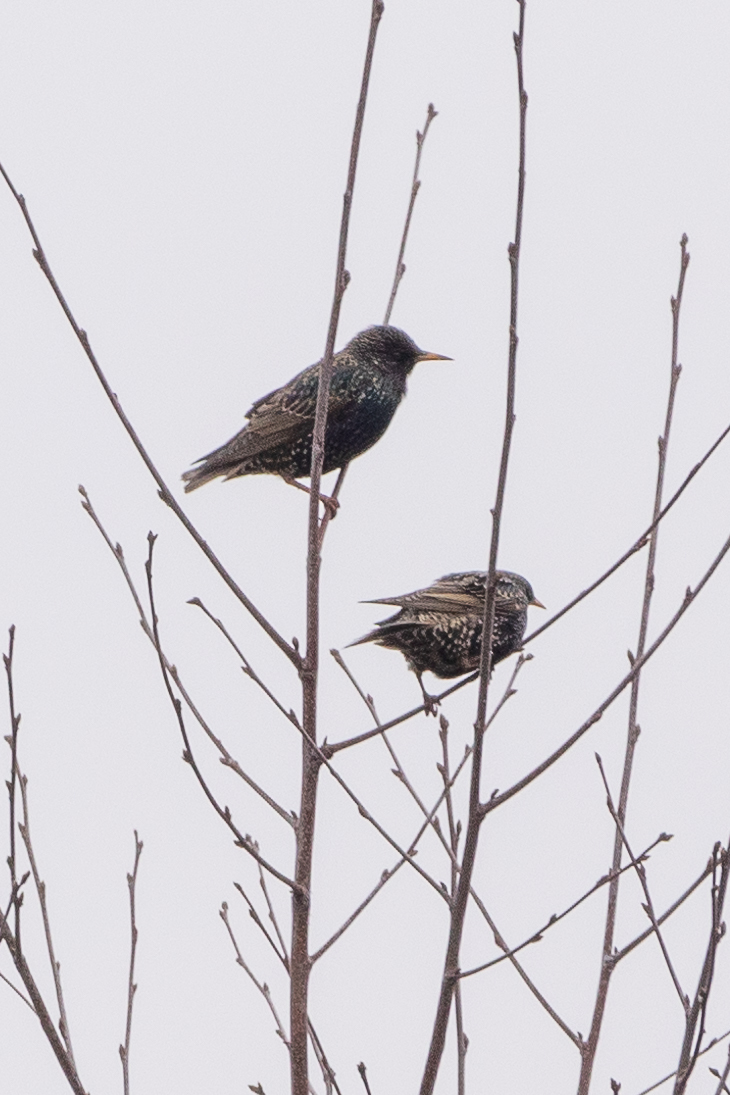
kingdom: Animalia
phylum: Chordata
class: Aves
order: Passeriformes
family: Sturnidae
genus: Sturnus
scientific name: Sturnus vulgaris
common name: Common starling
